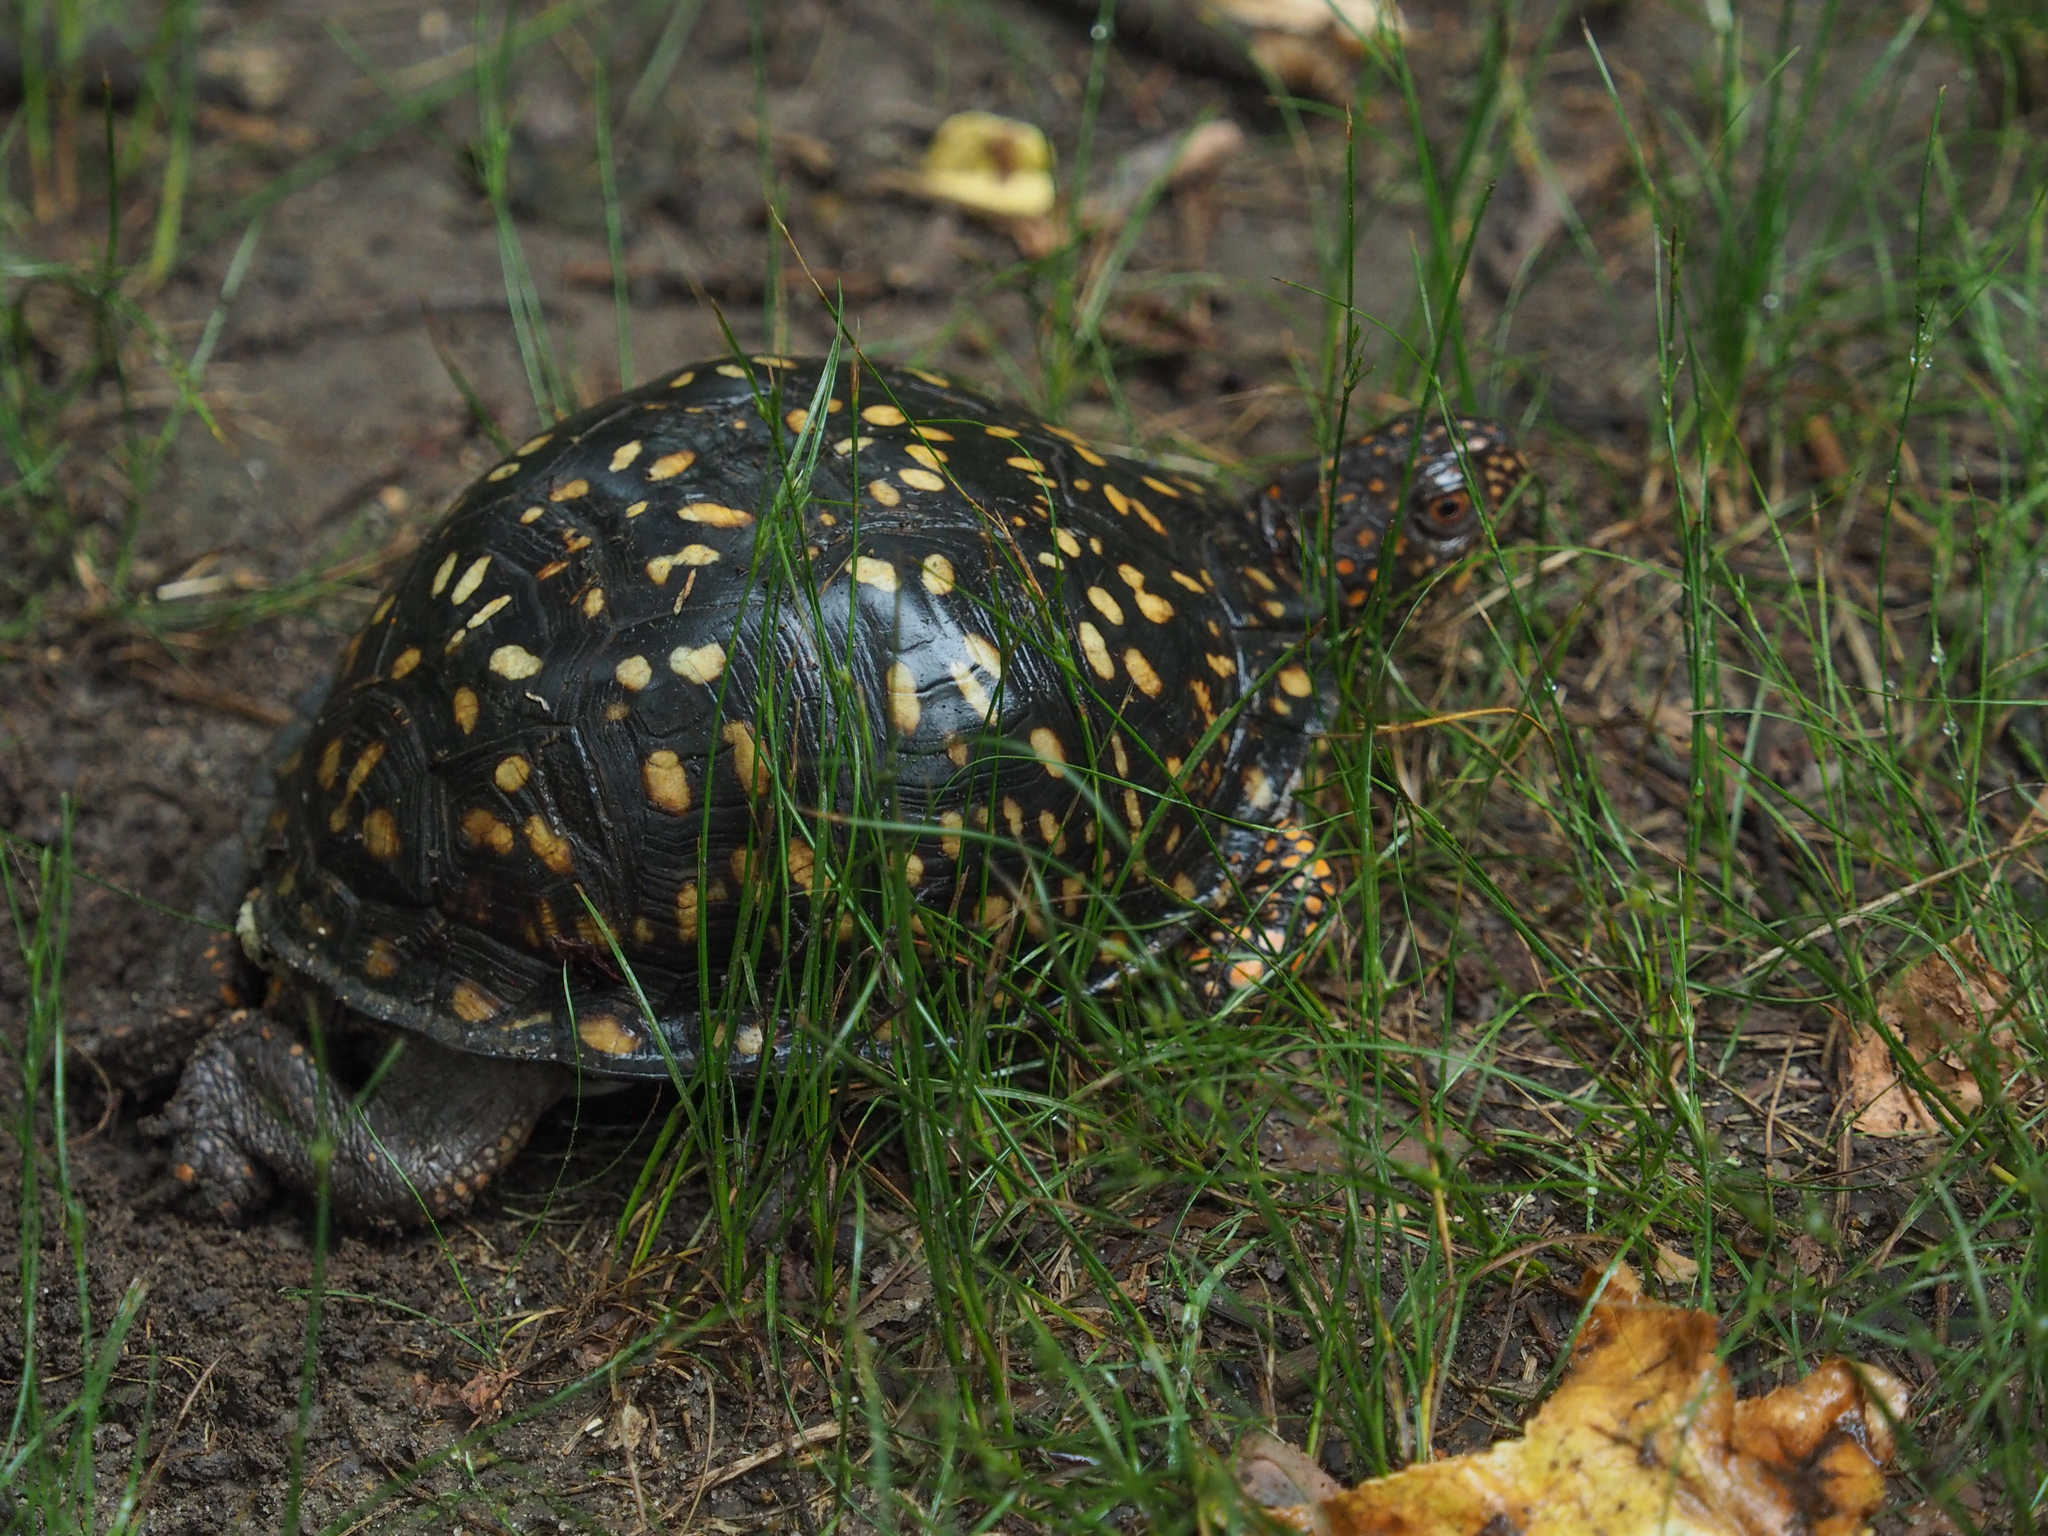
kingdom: Animalia
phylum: Chordata
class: Testudines
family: Emydidae
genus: Terrapene
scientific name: Terrapene carolina
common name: Common box turtle
